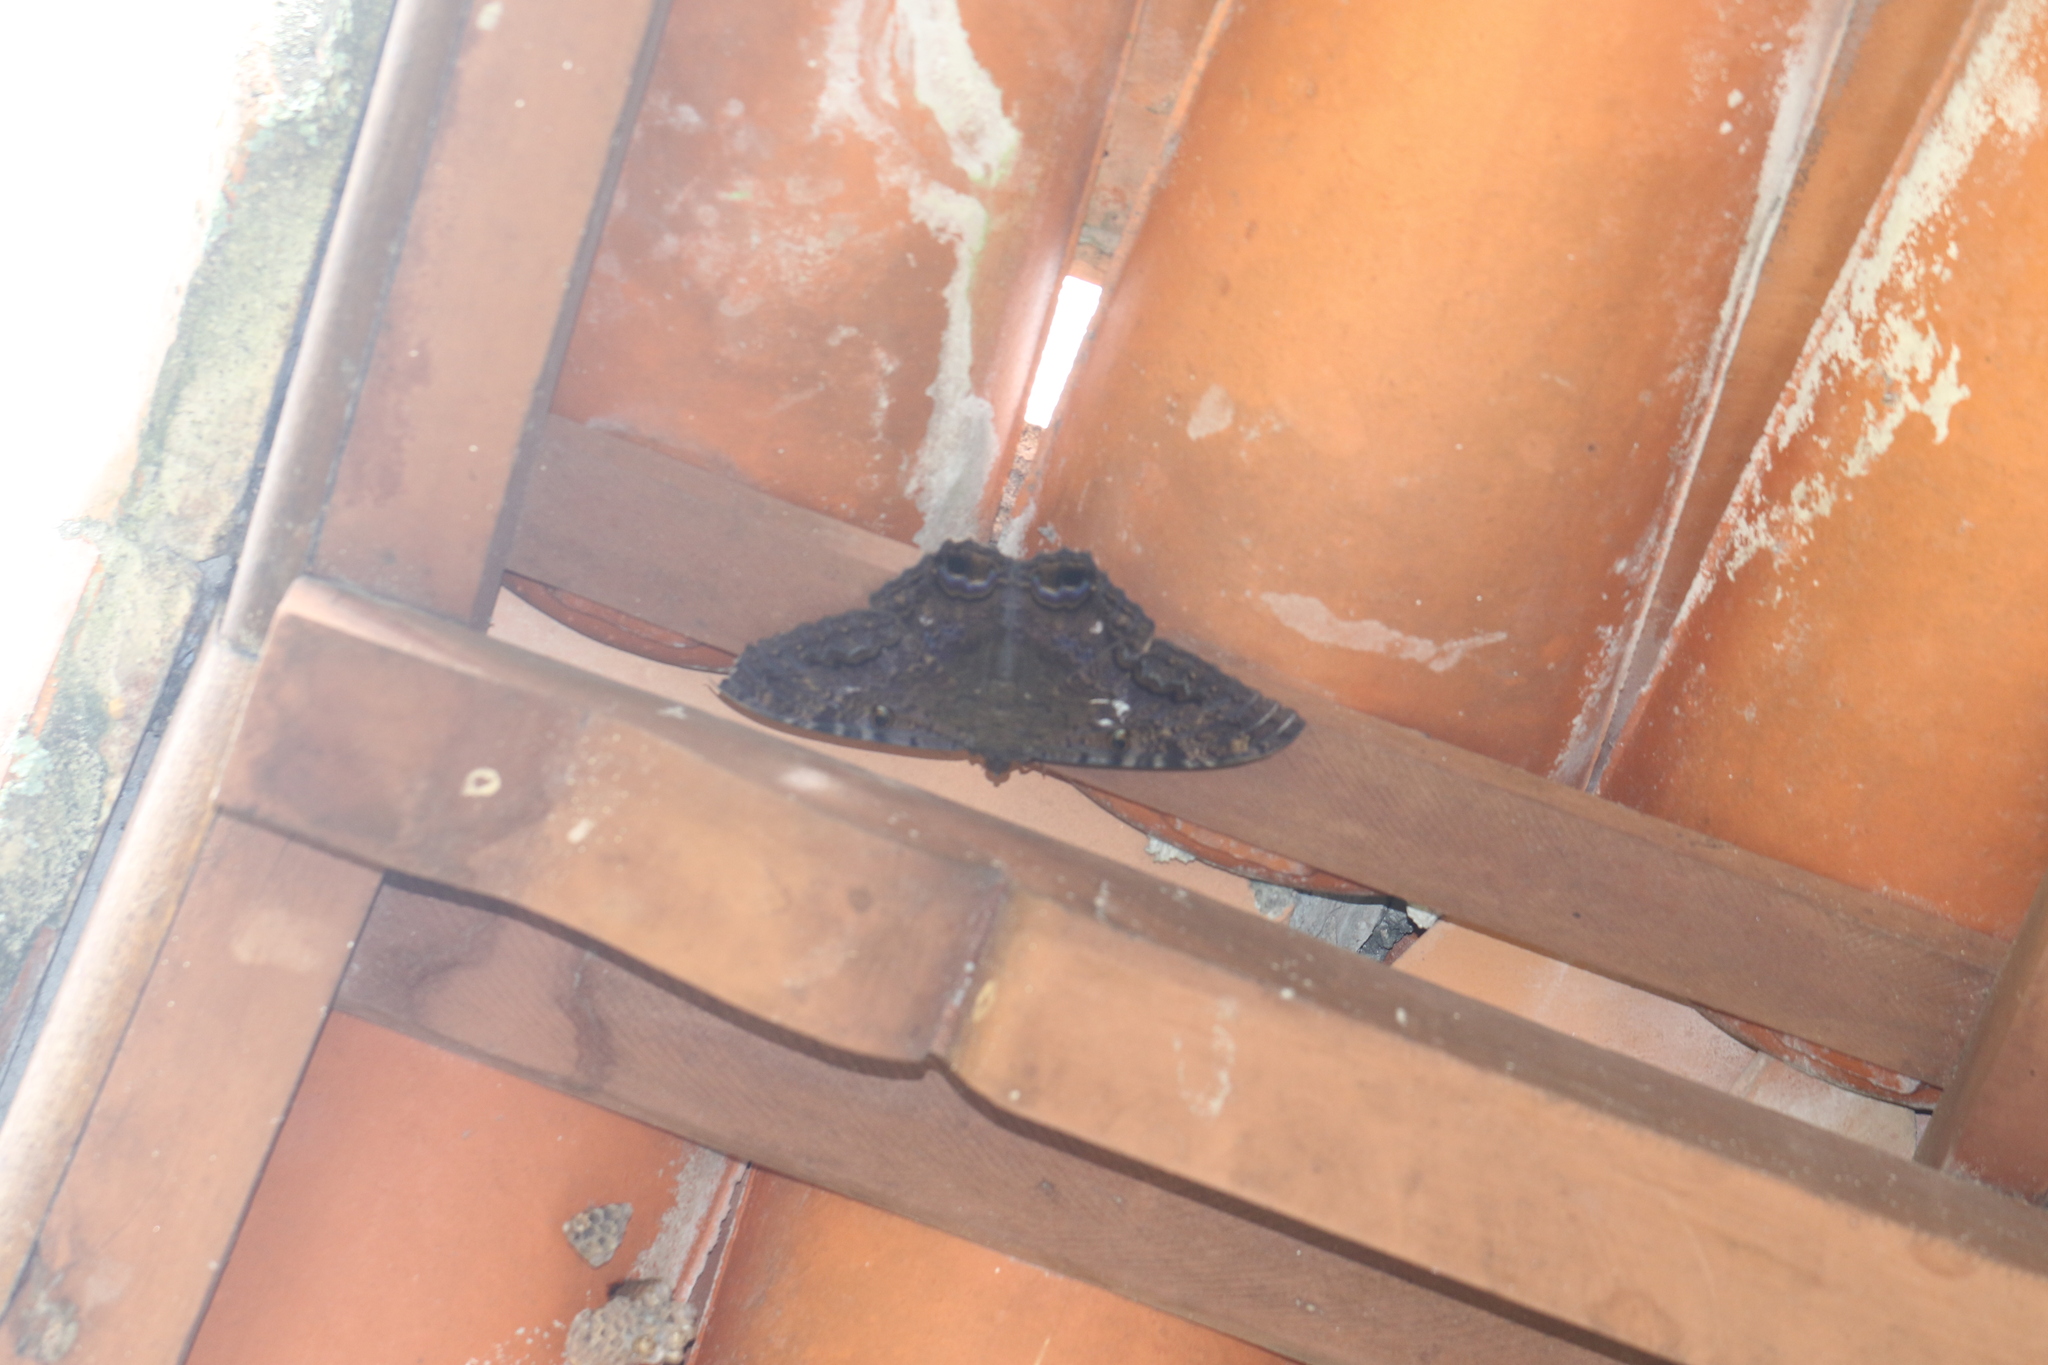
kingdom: Animalia
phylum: Arthropoda
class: Insecta
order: Lepidoptera
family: Erebidae
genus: Ascalapha
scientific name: Ascalapha odorata
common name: Black witch
